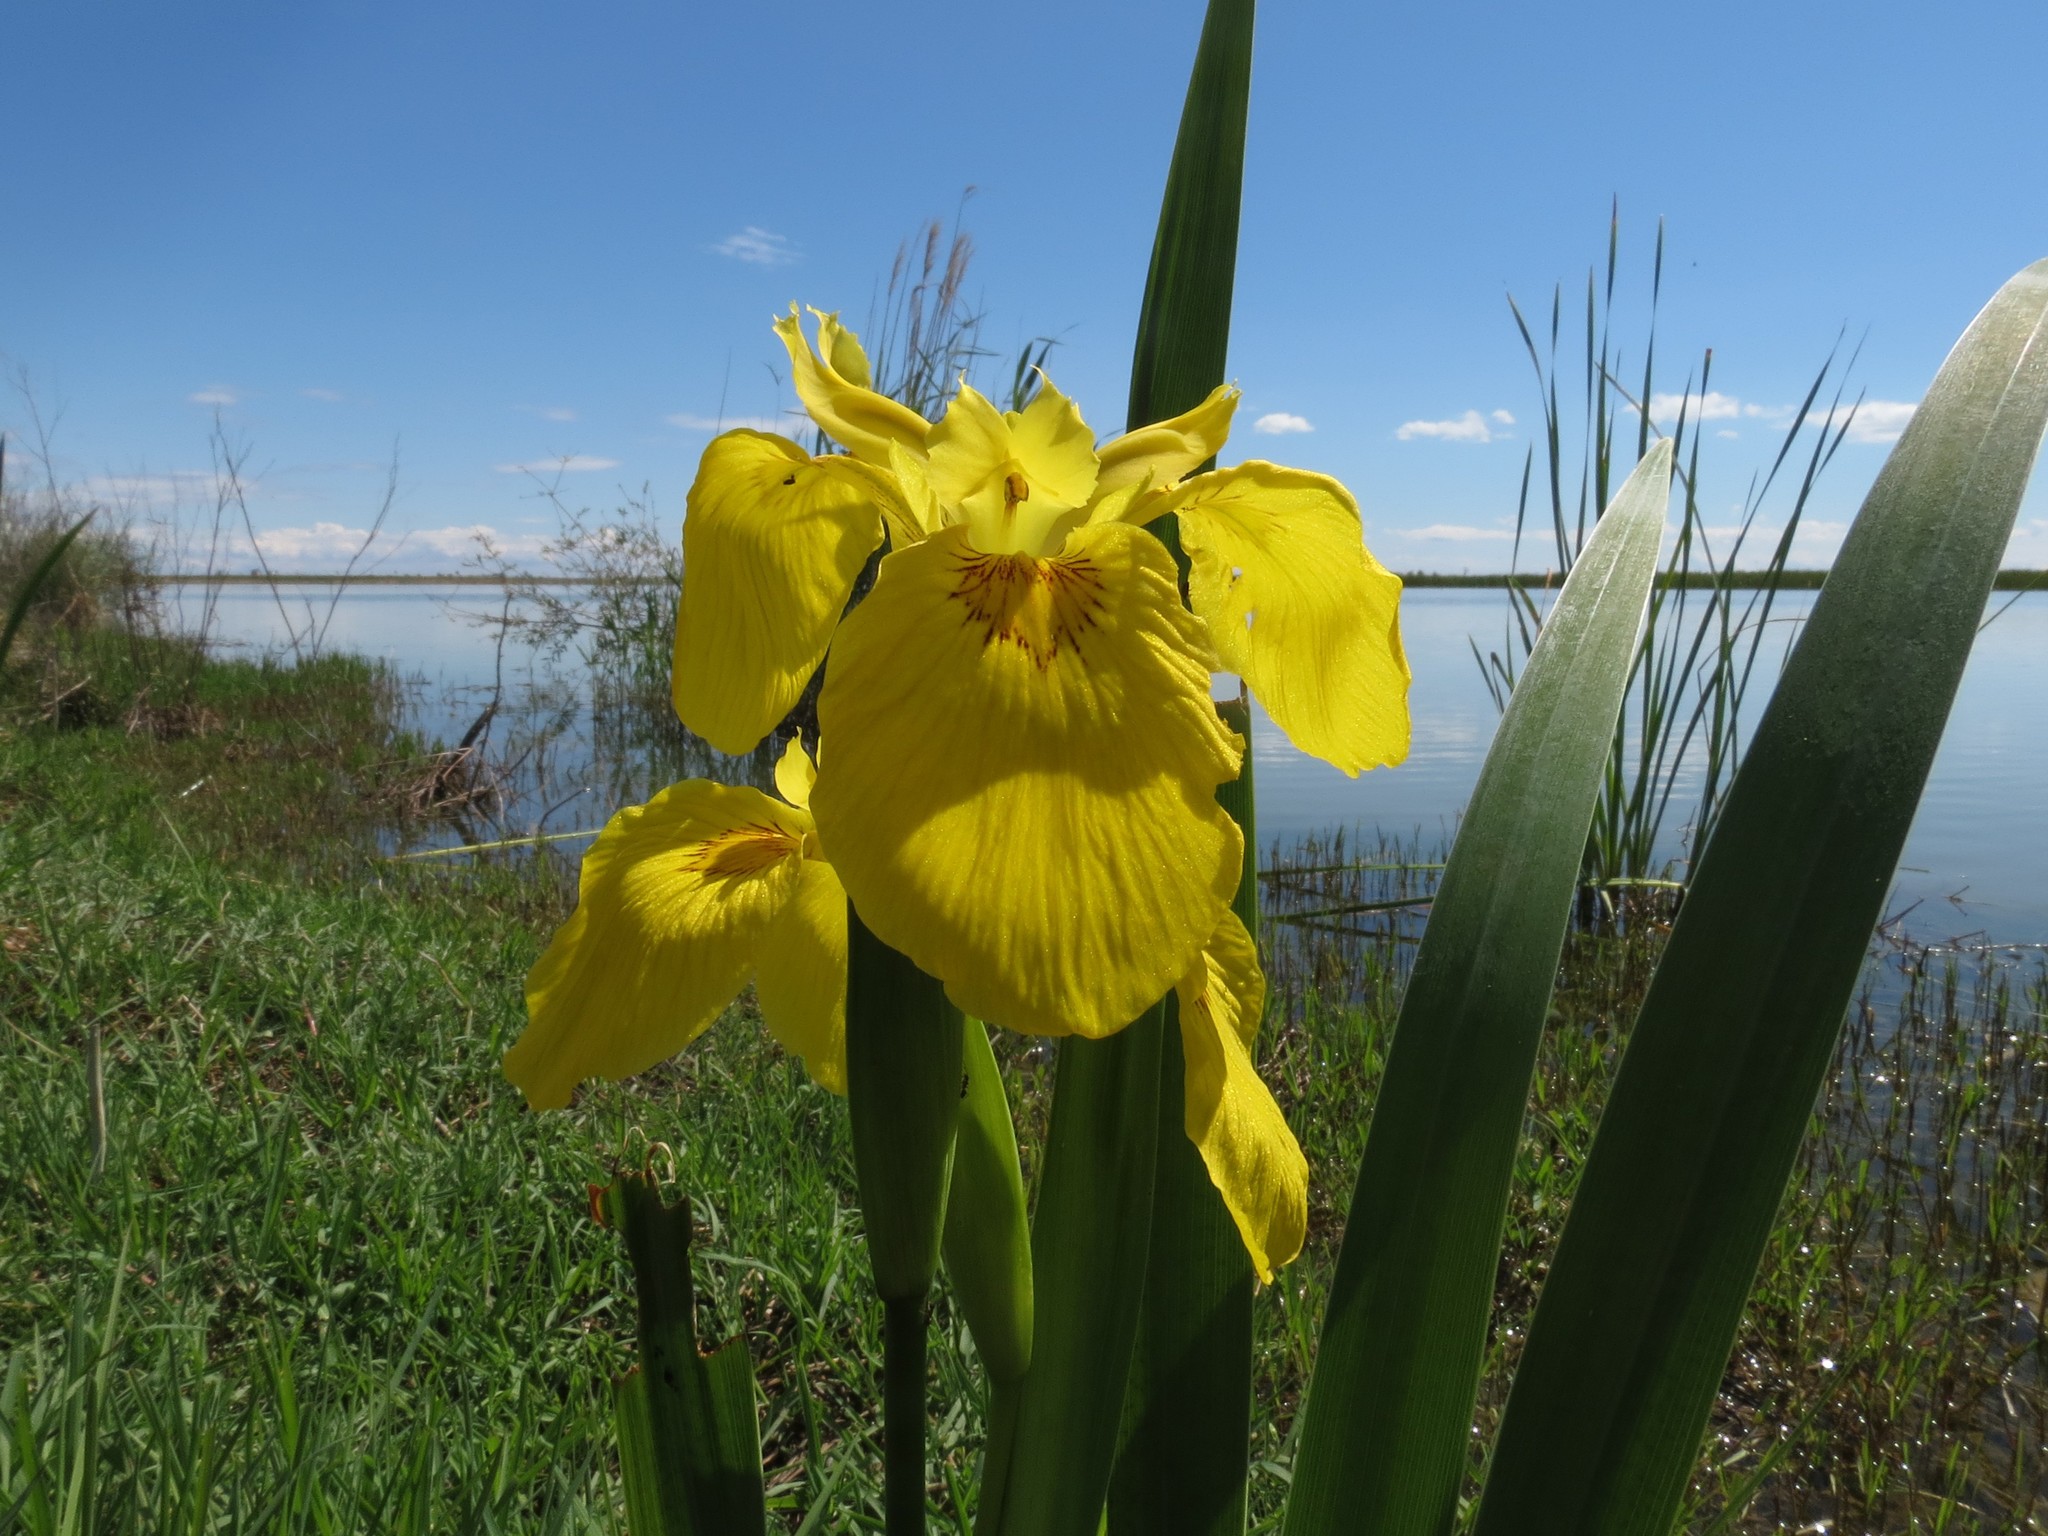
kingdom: Plantae
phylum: Tracheophyta
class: Liliopsida
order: Asparagales
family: Iridaceae
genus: Iris
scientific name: Iris pseudacorus
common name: Yellow flag
